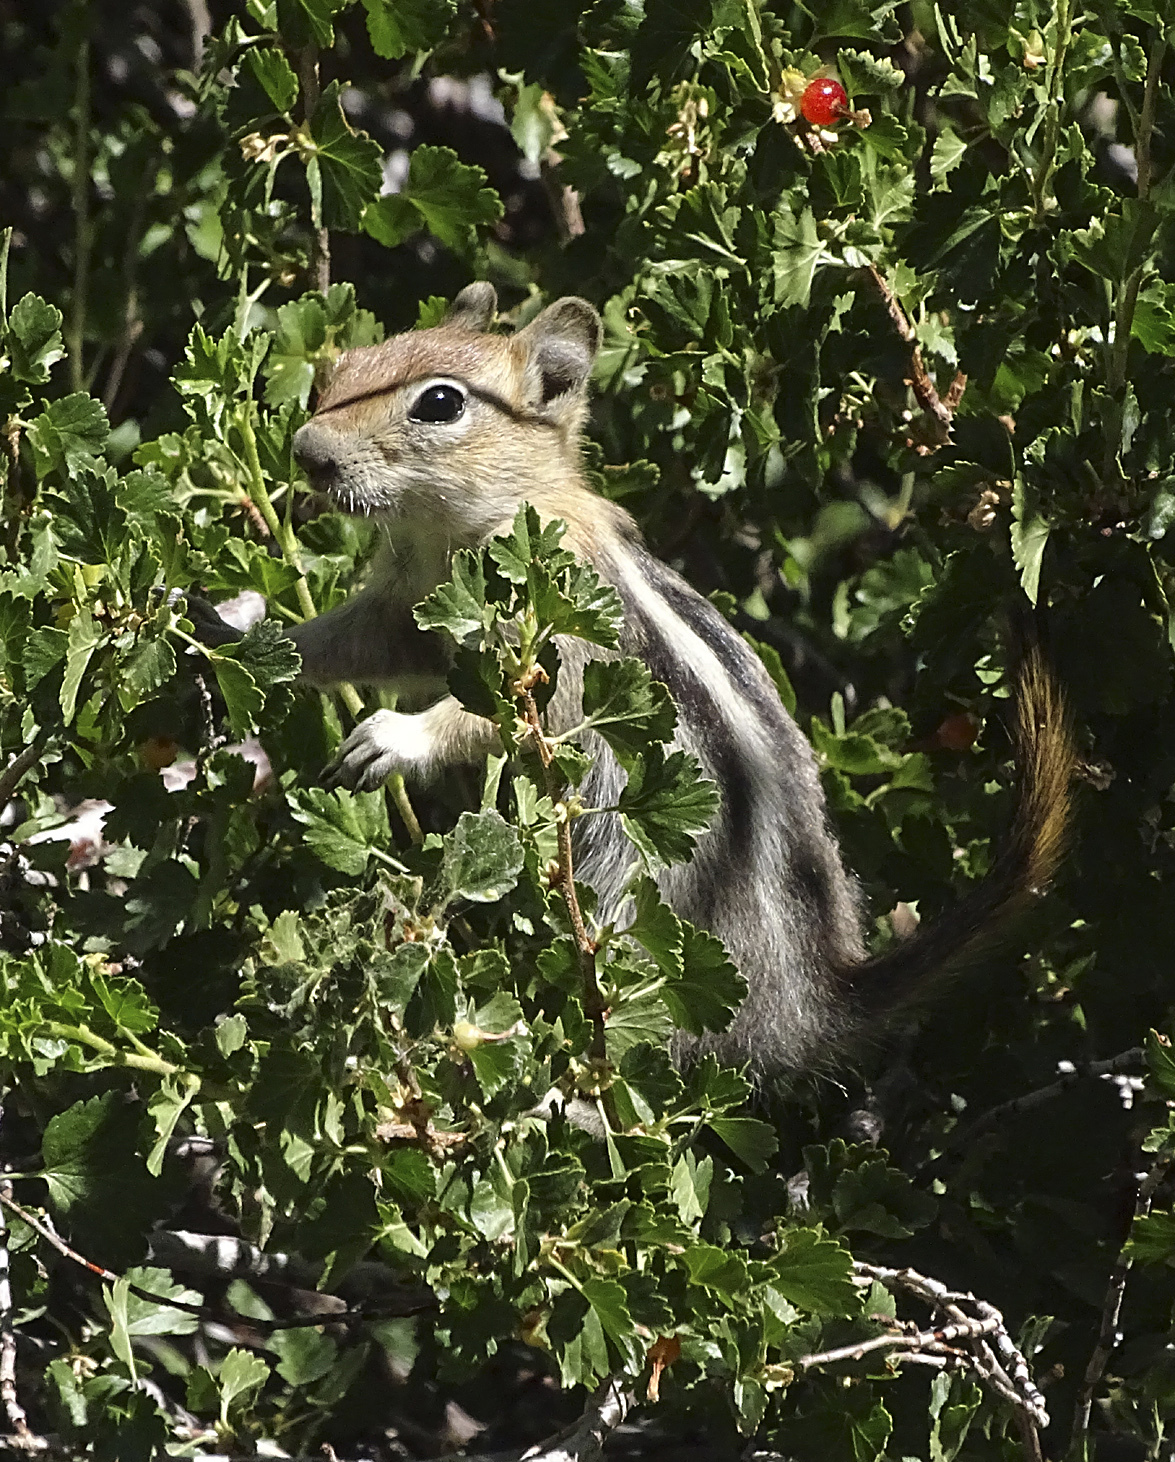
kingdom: Animalia
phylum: Chordata
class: Mammalia
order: Rodentia
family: Sciuridae
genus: Callospermophilus
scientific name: Callospermophilus lateralis
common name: Golden-mantled ground squirrel
